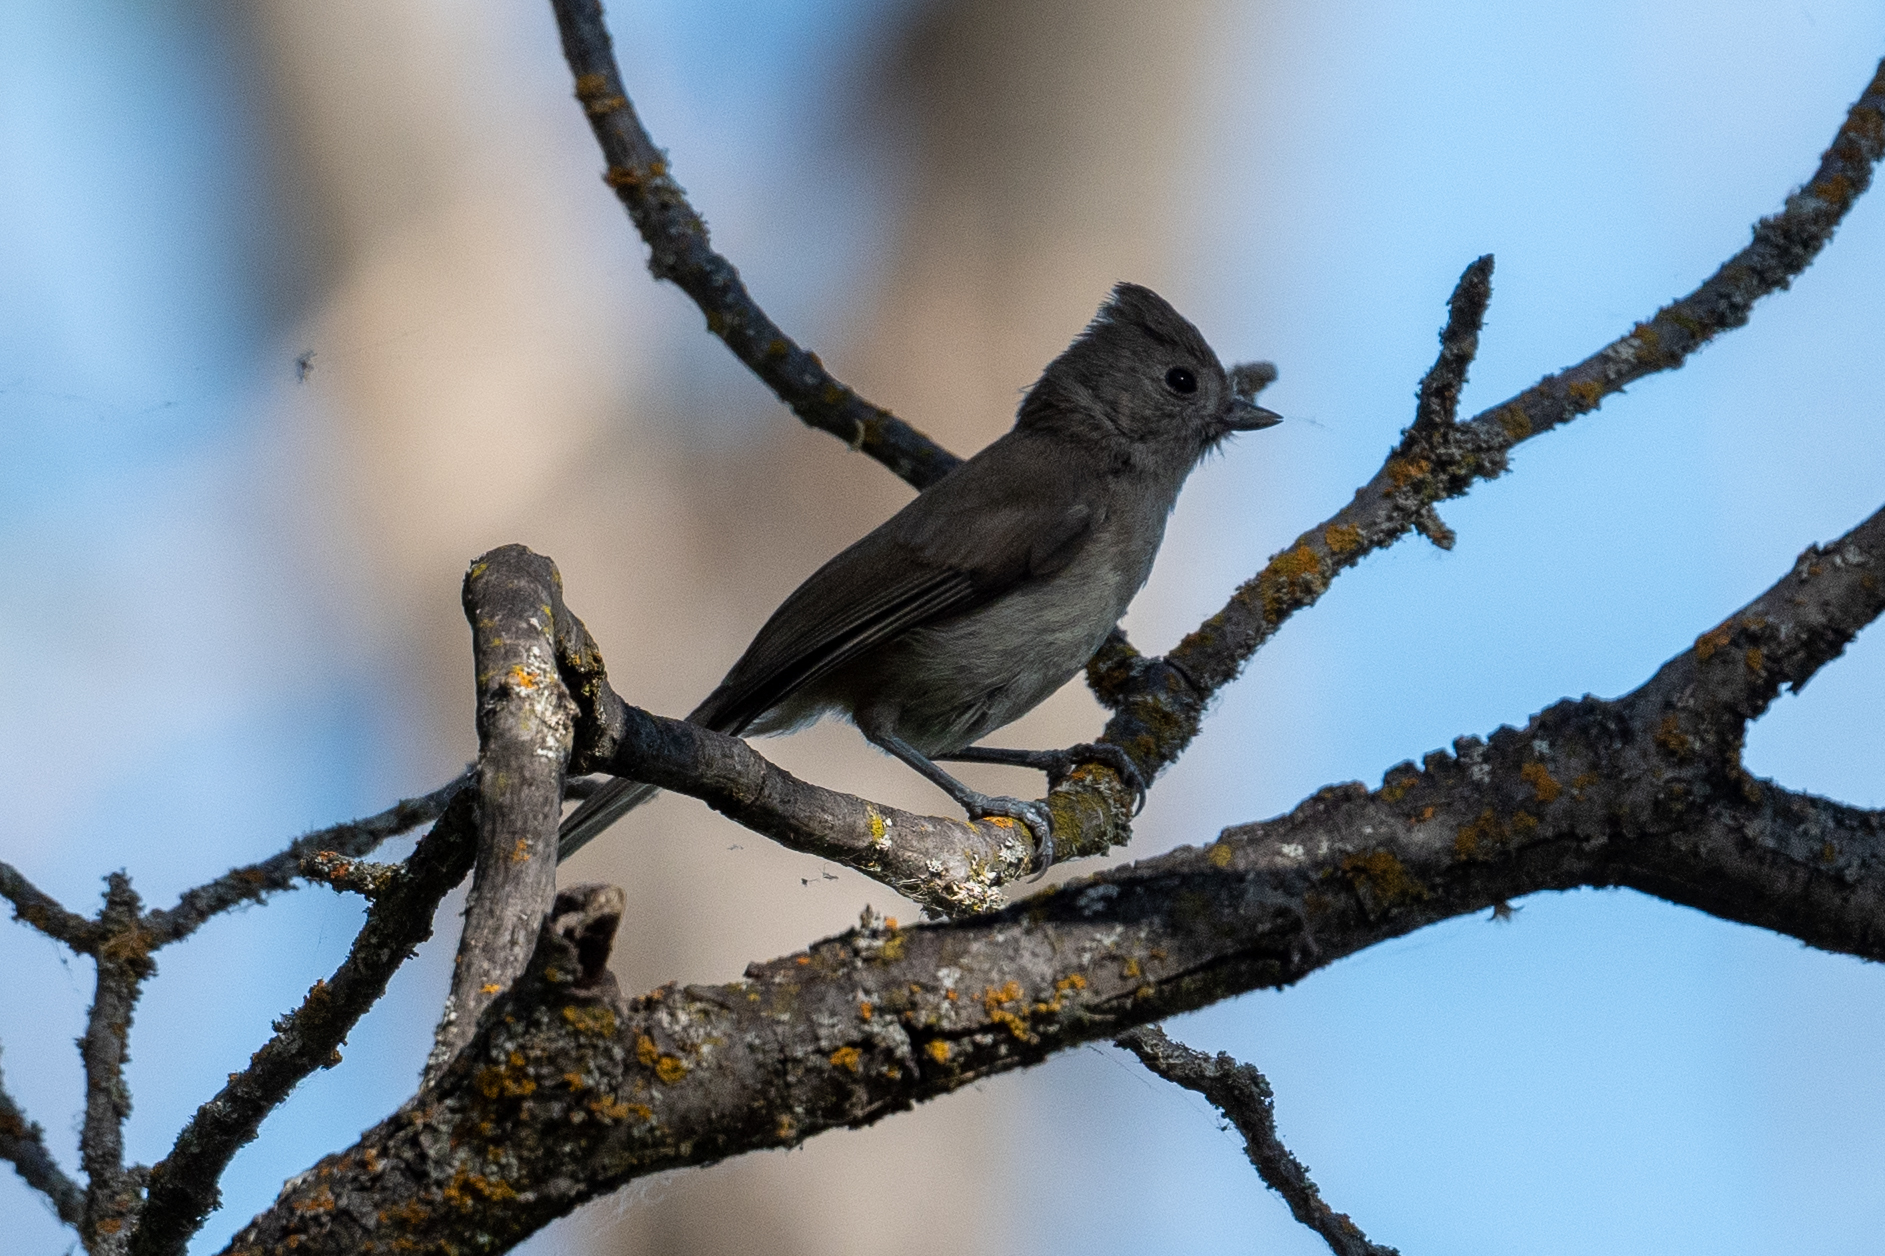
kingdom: Animalia
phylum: Chordata
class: Aves
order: Passeriformes
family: Paridae
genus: Baeolophus
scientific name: Baeolophus inornatus
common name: Oak titmouse
